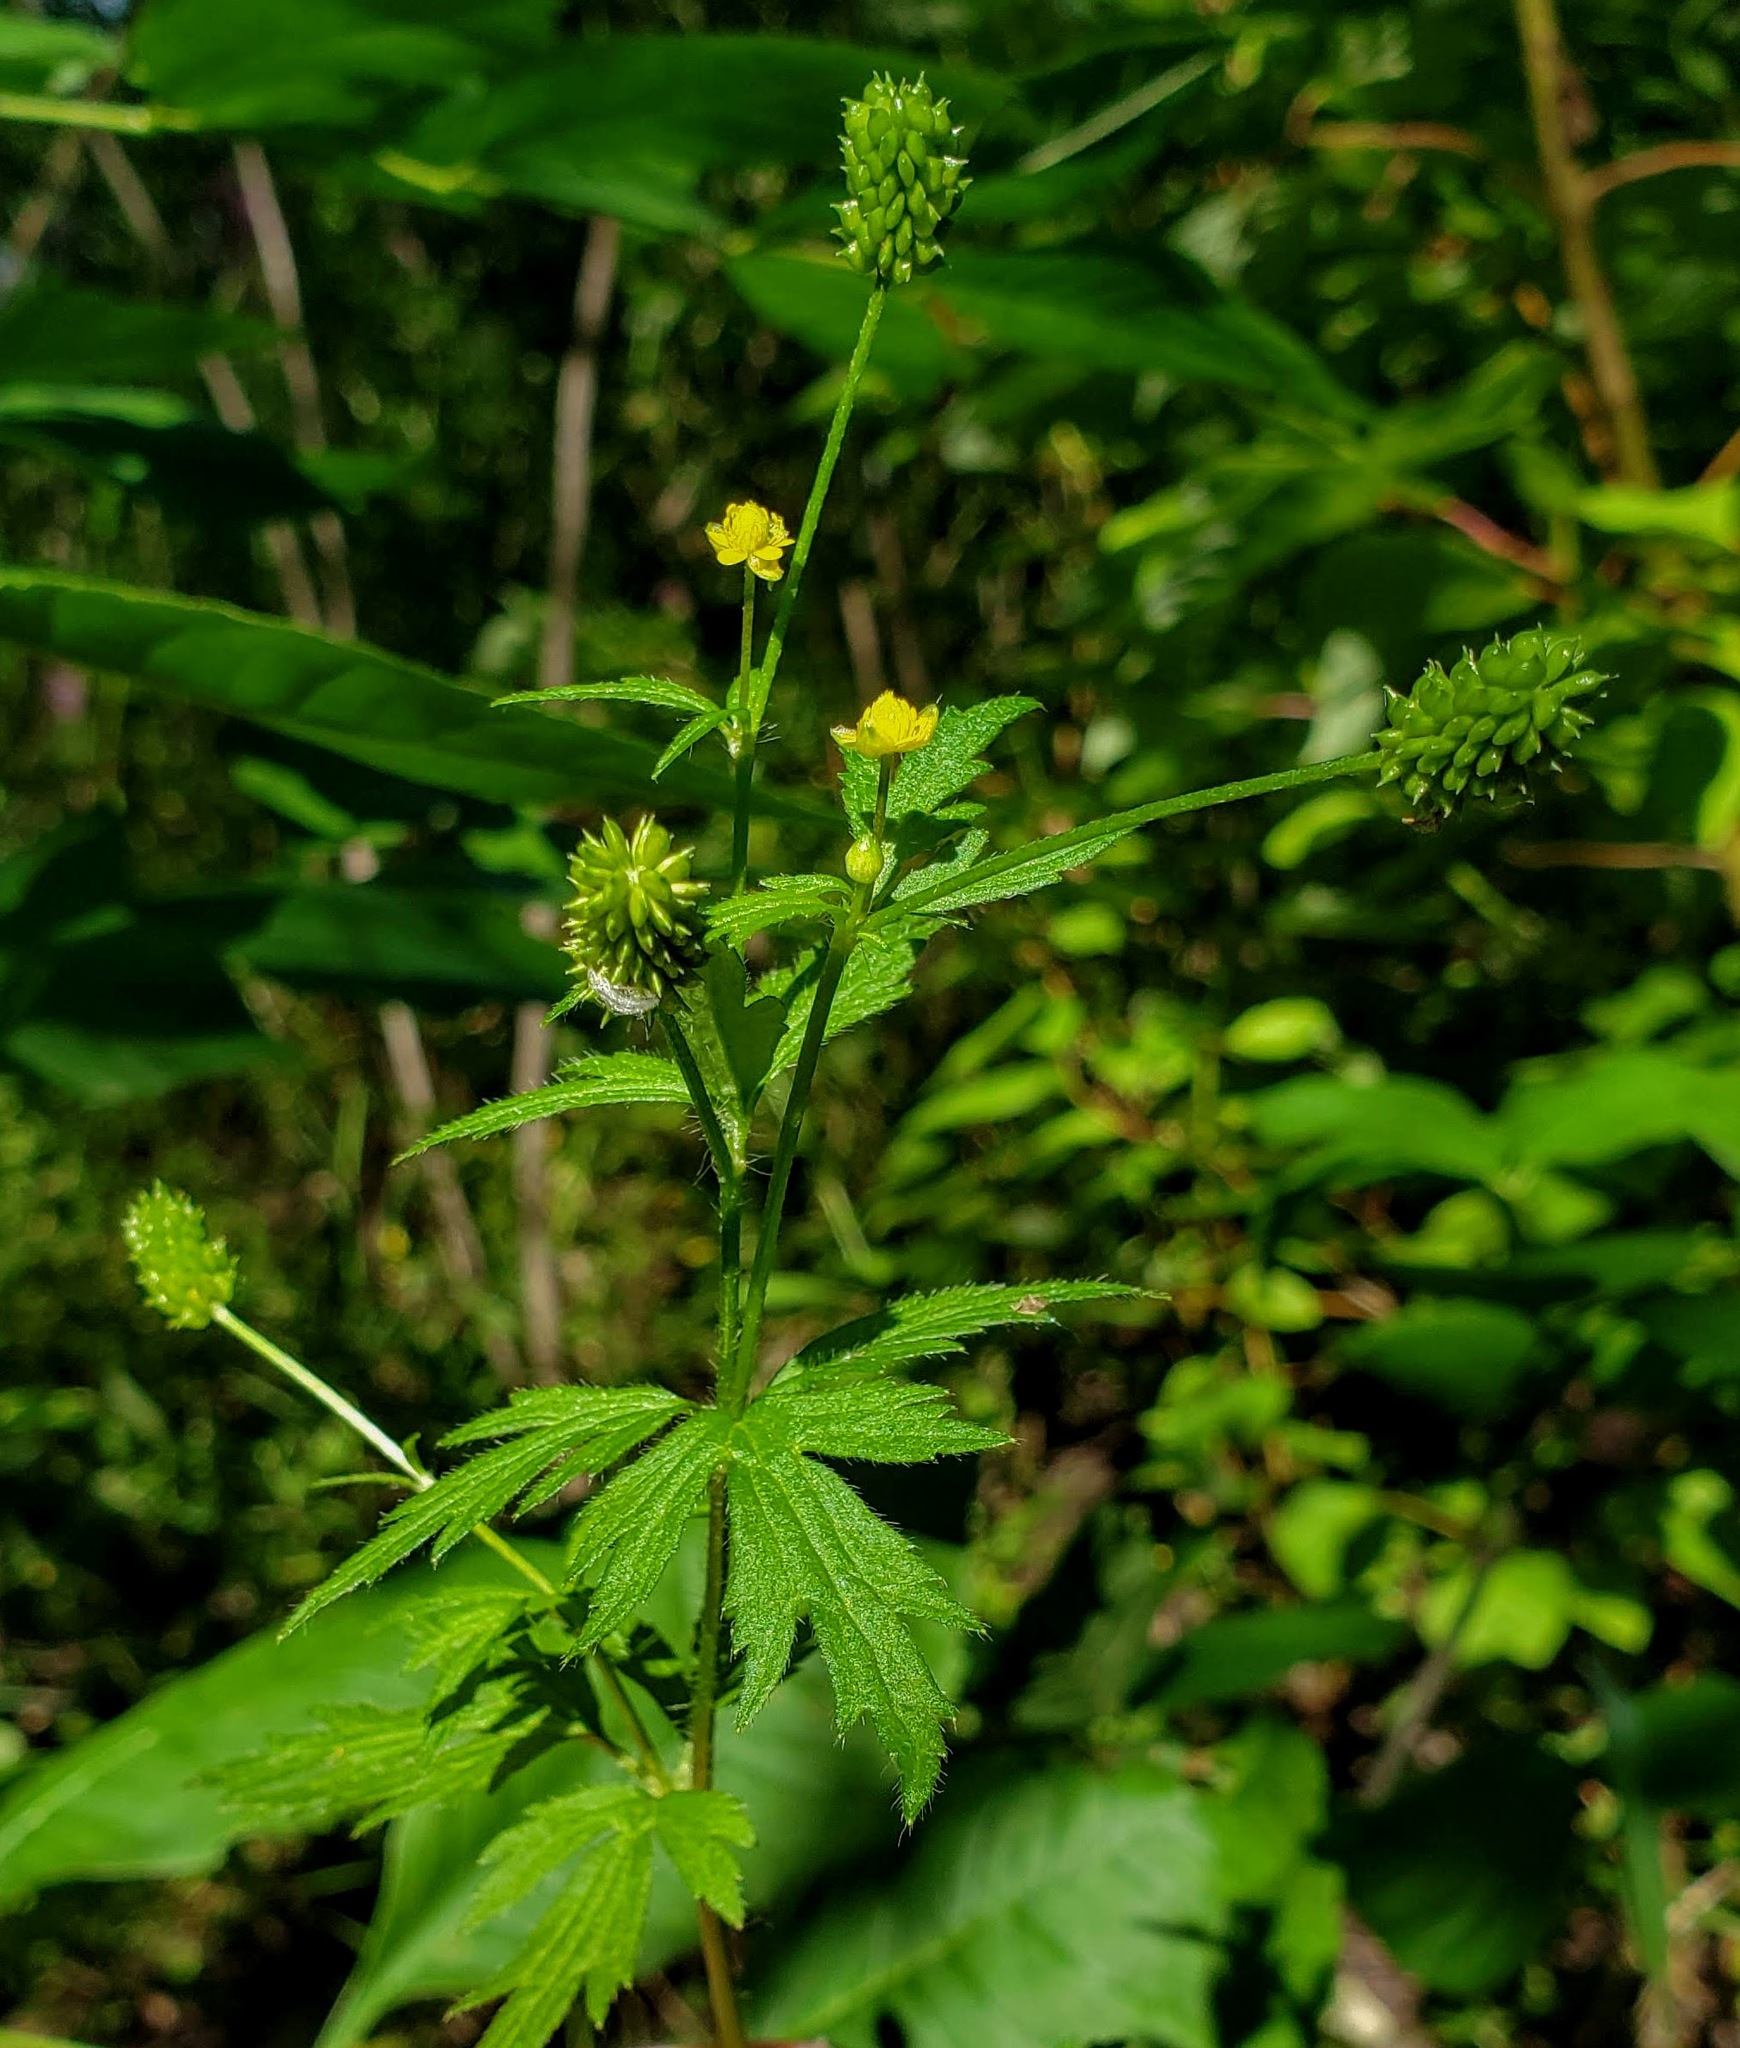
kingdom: Plantae
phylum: Tracheophyta
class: Magnoliopsida
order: Ranunculales
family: Ranunculaceae
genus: Ranunculus
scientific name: Ranunculus pensylvanicus
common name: Bristly buttercup
